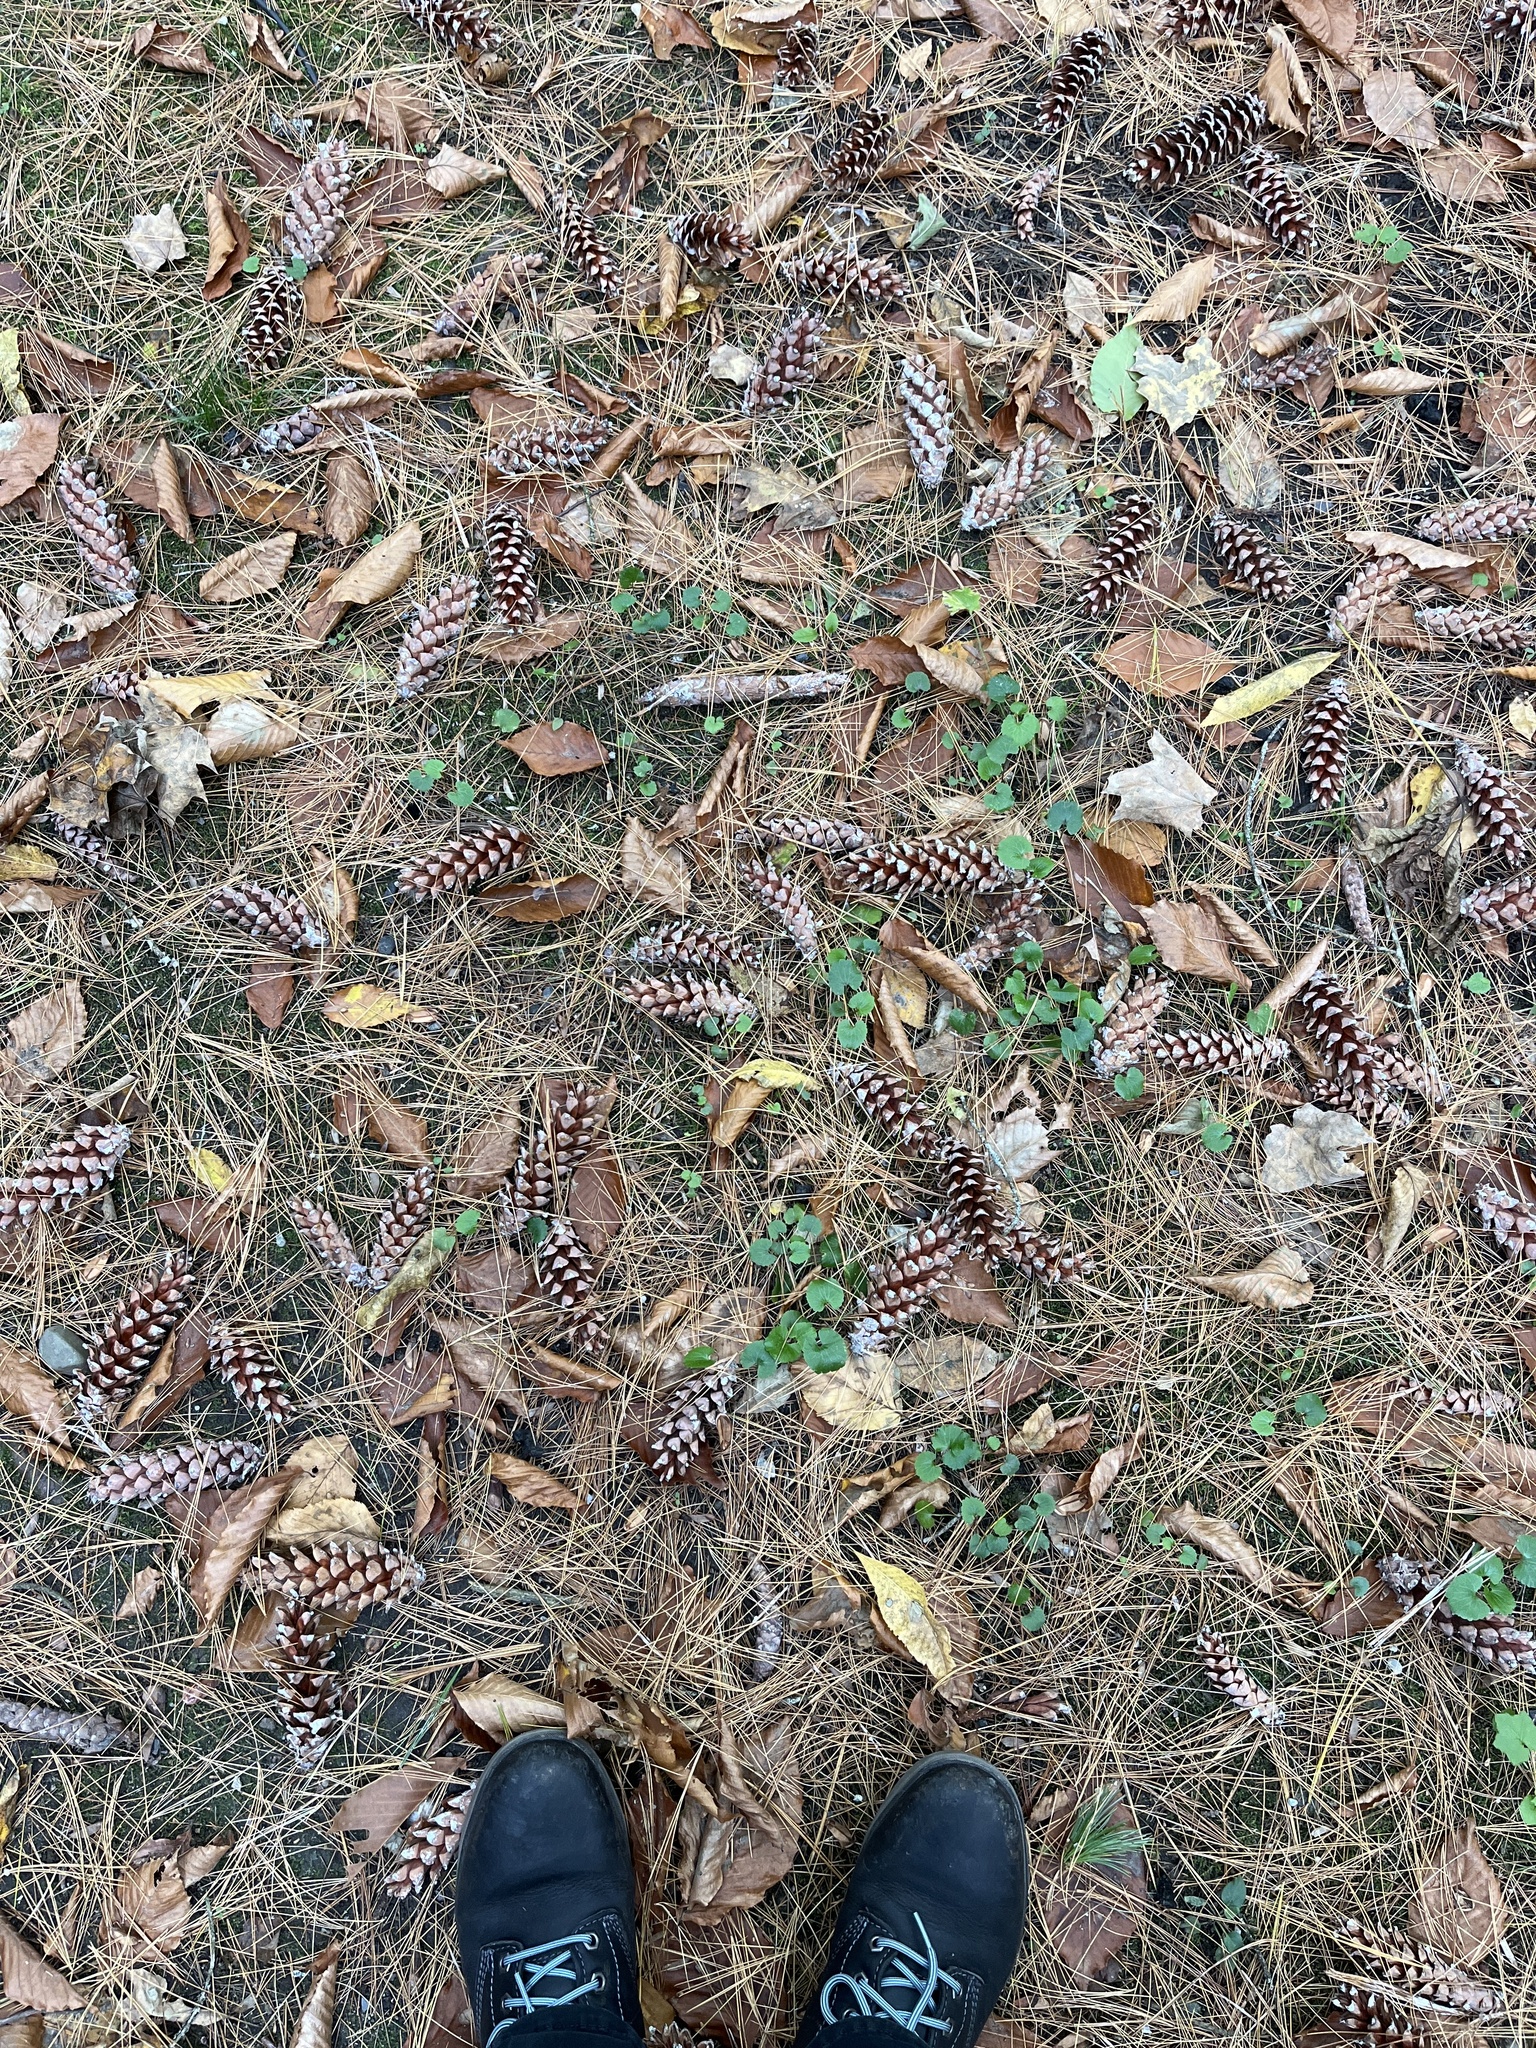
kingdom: Plantae
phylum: Tracheophyta
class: Pinopsida
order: Pinales
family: Pinaceae
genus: Pinus
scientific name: Pinus strobus
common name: Weymouth pine
